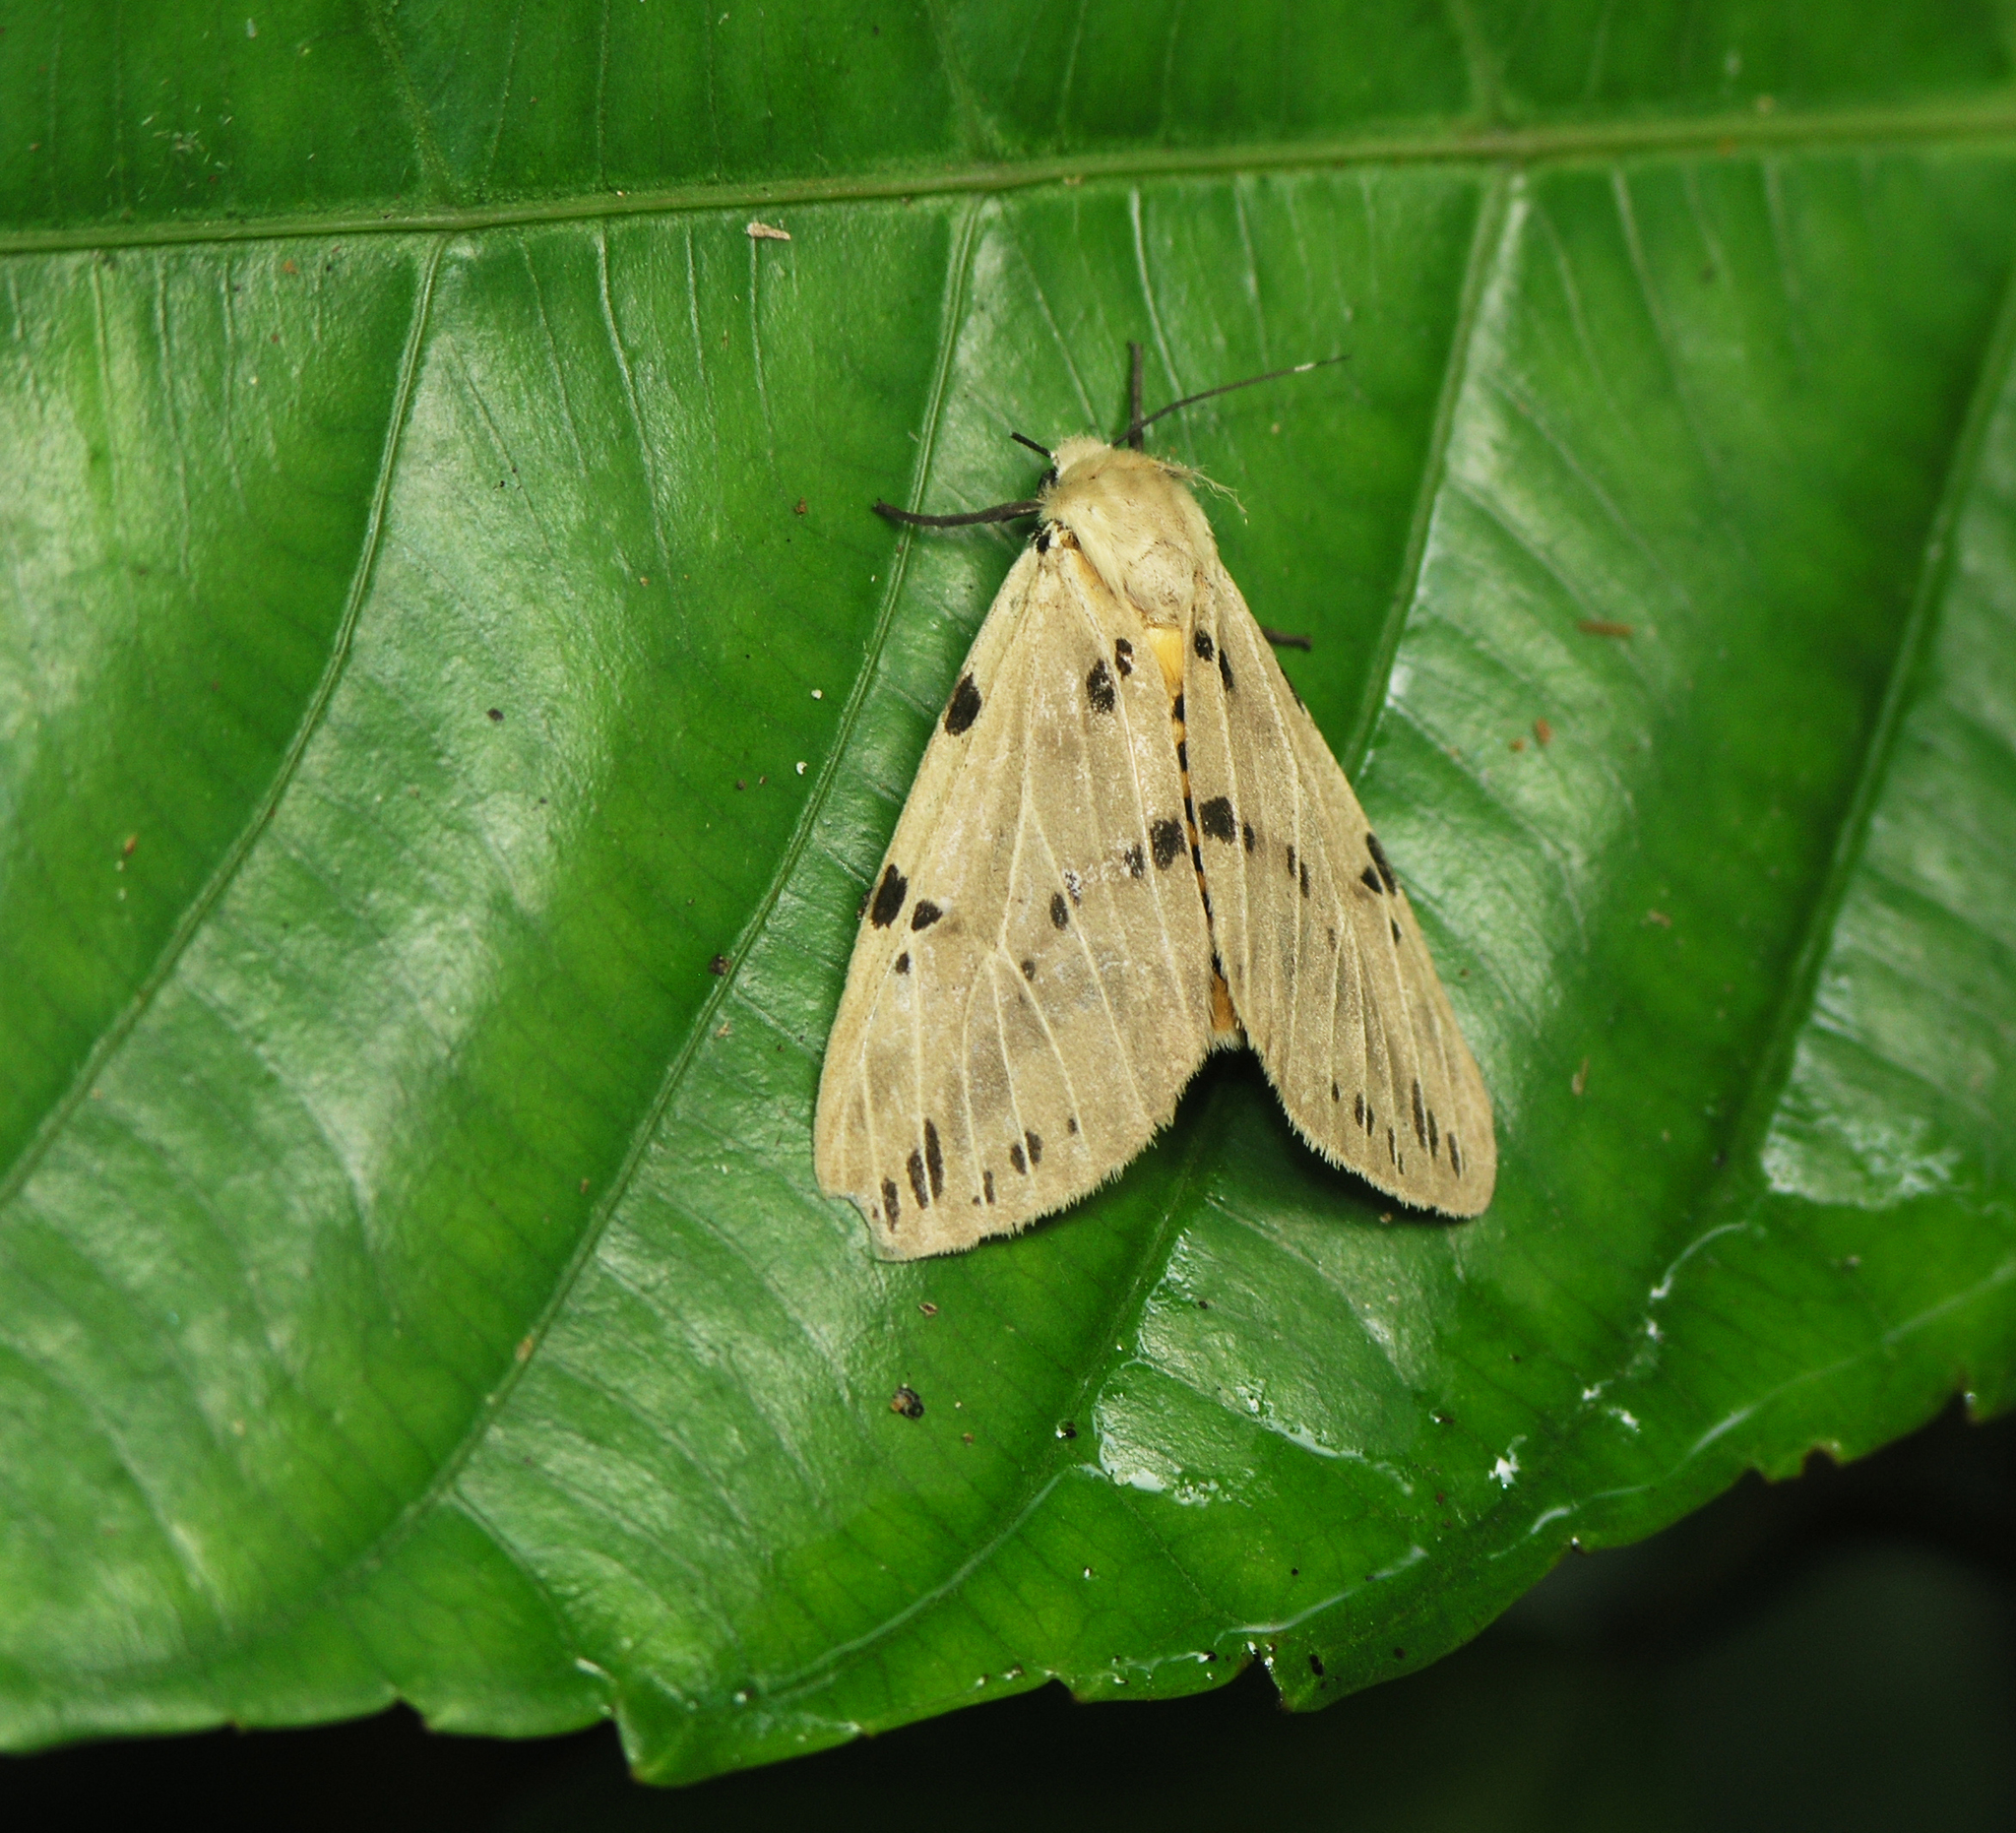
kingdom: Animalia
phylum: Arthropoda
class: Insecta
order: Lepidoptera
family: Erebidae
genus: Spilosoma
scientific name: Spilosoma gopara
